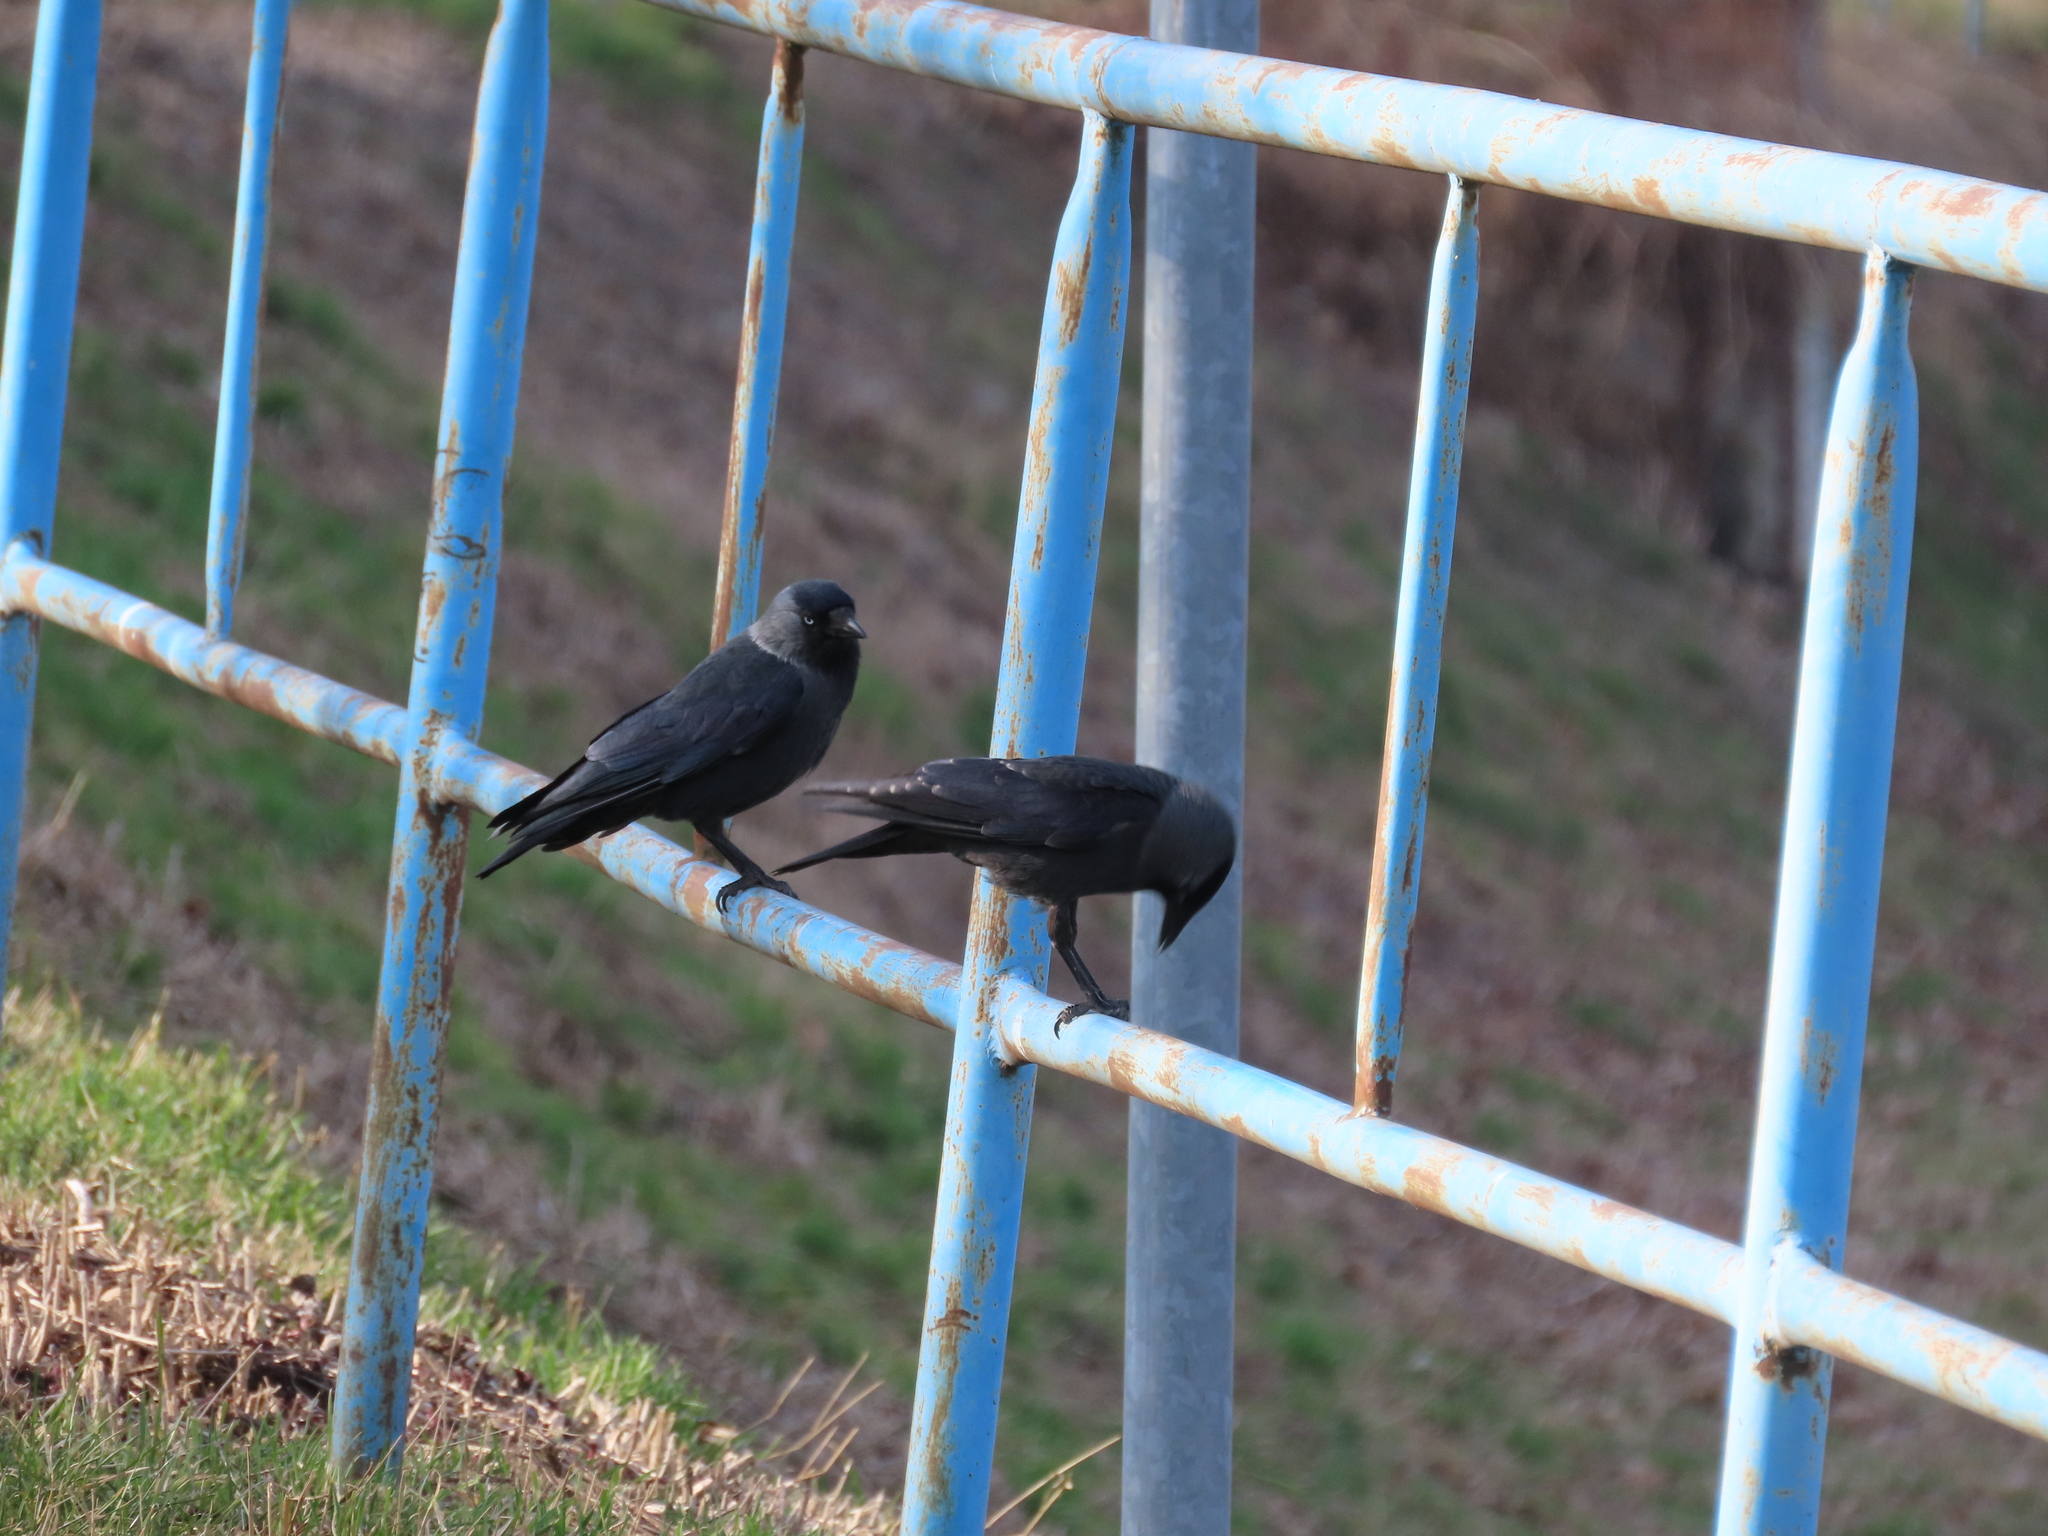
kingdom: Animalia
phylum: Chordata
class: Aves
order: Passeriformes
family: Corvidae
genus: Coloeus
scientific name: Coloeus monedula
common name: Western jackdaw
